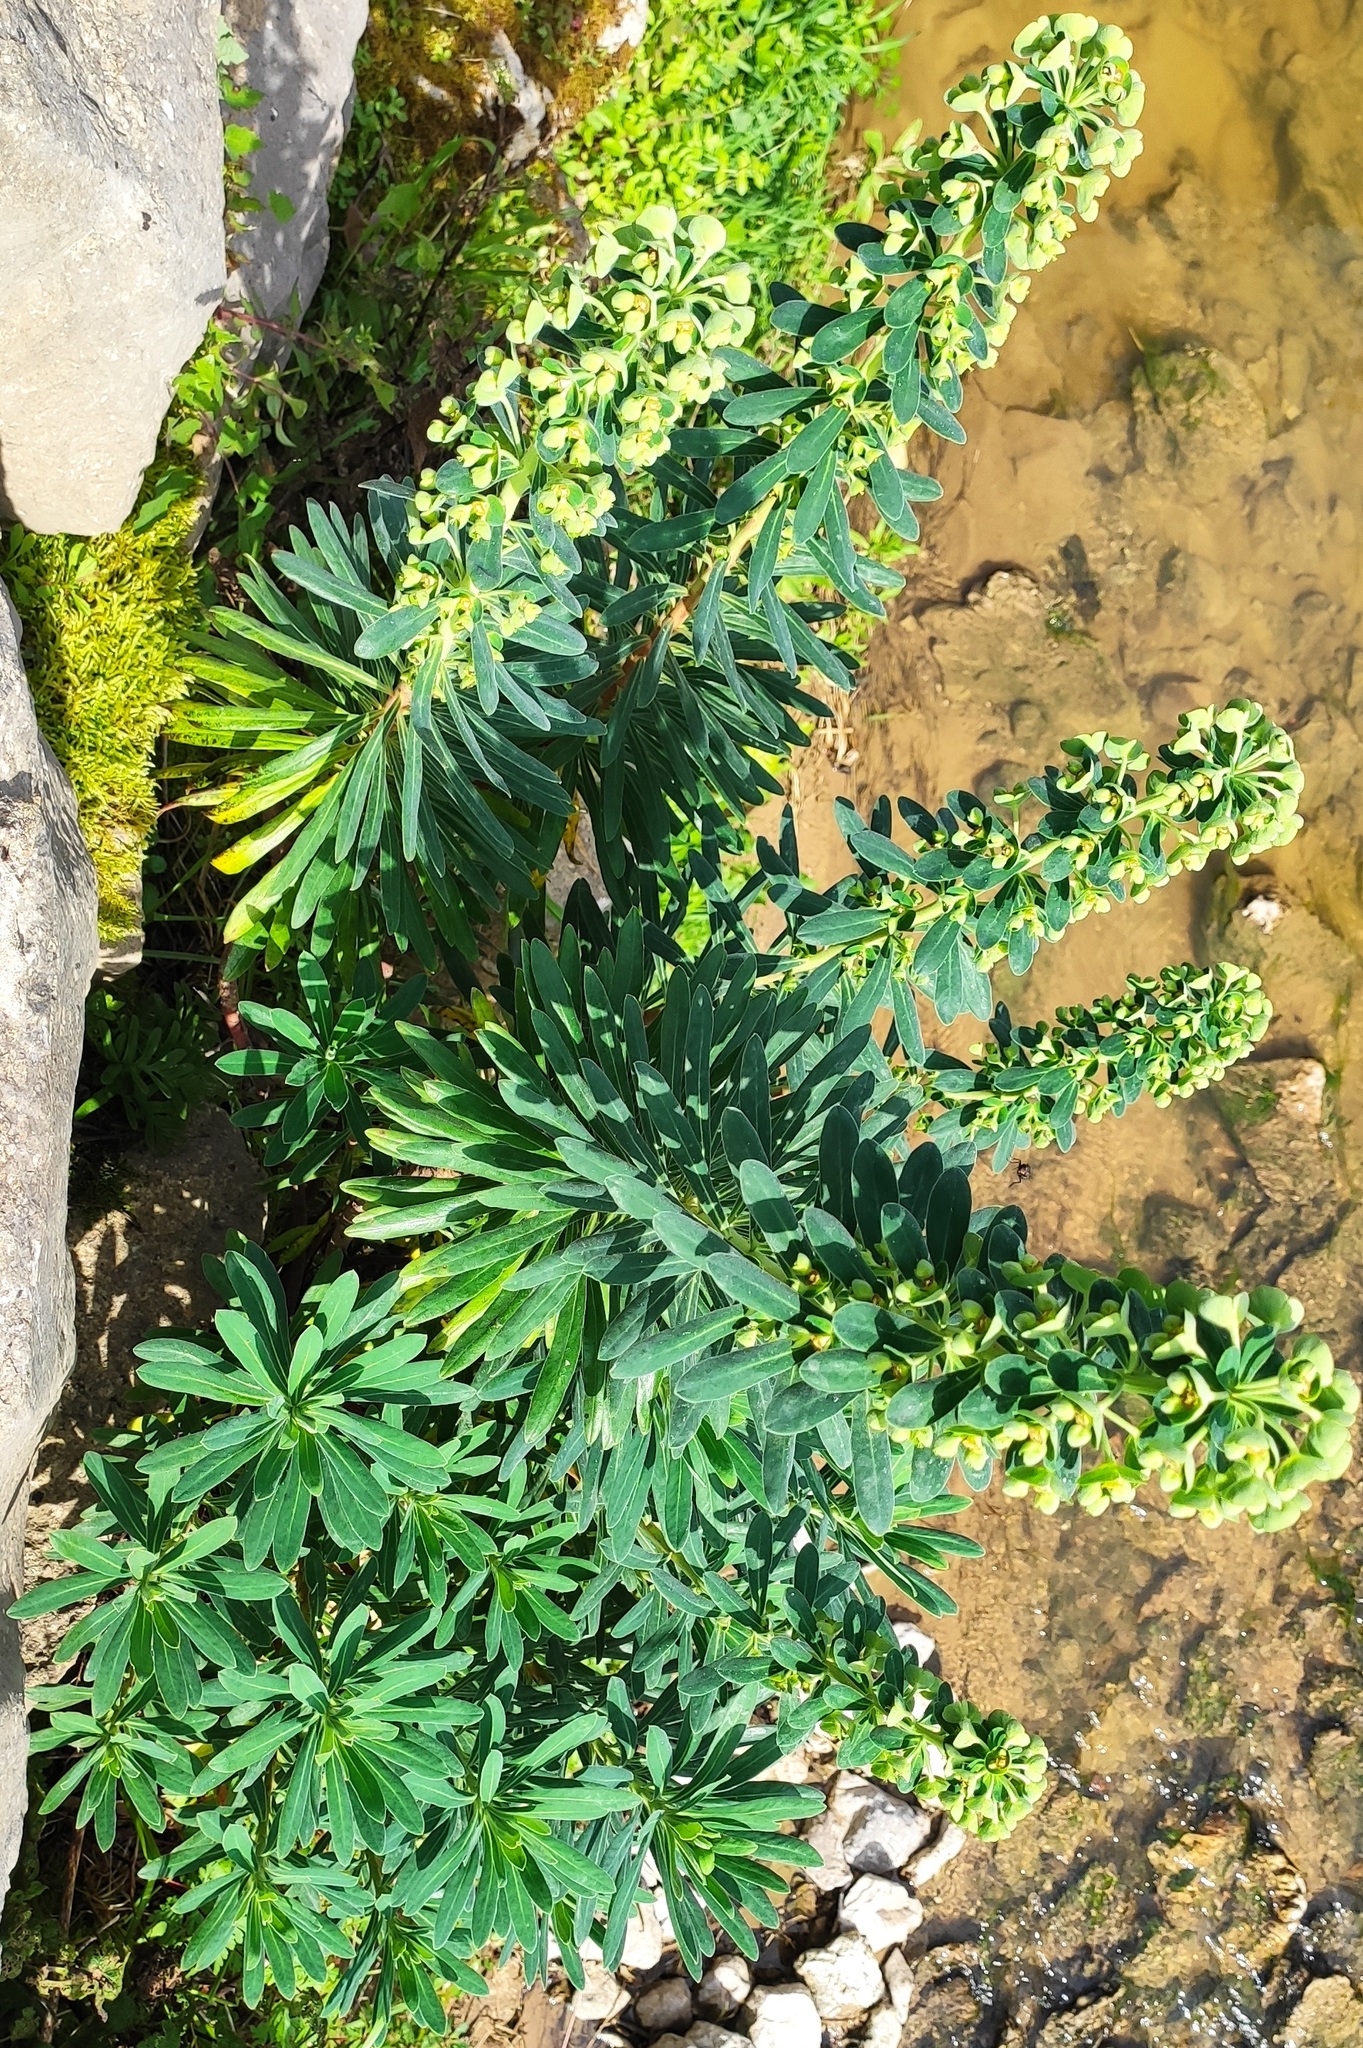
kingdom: Plantae
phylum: Tracheophyta
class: Magnoliopsida
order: Malpighiales
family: Euphorbiaceae
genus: Euphorbia
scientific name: Euphorbia characias
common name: Mediterranean spurge
